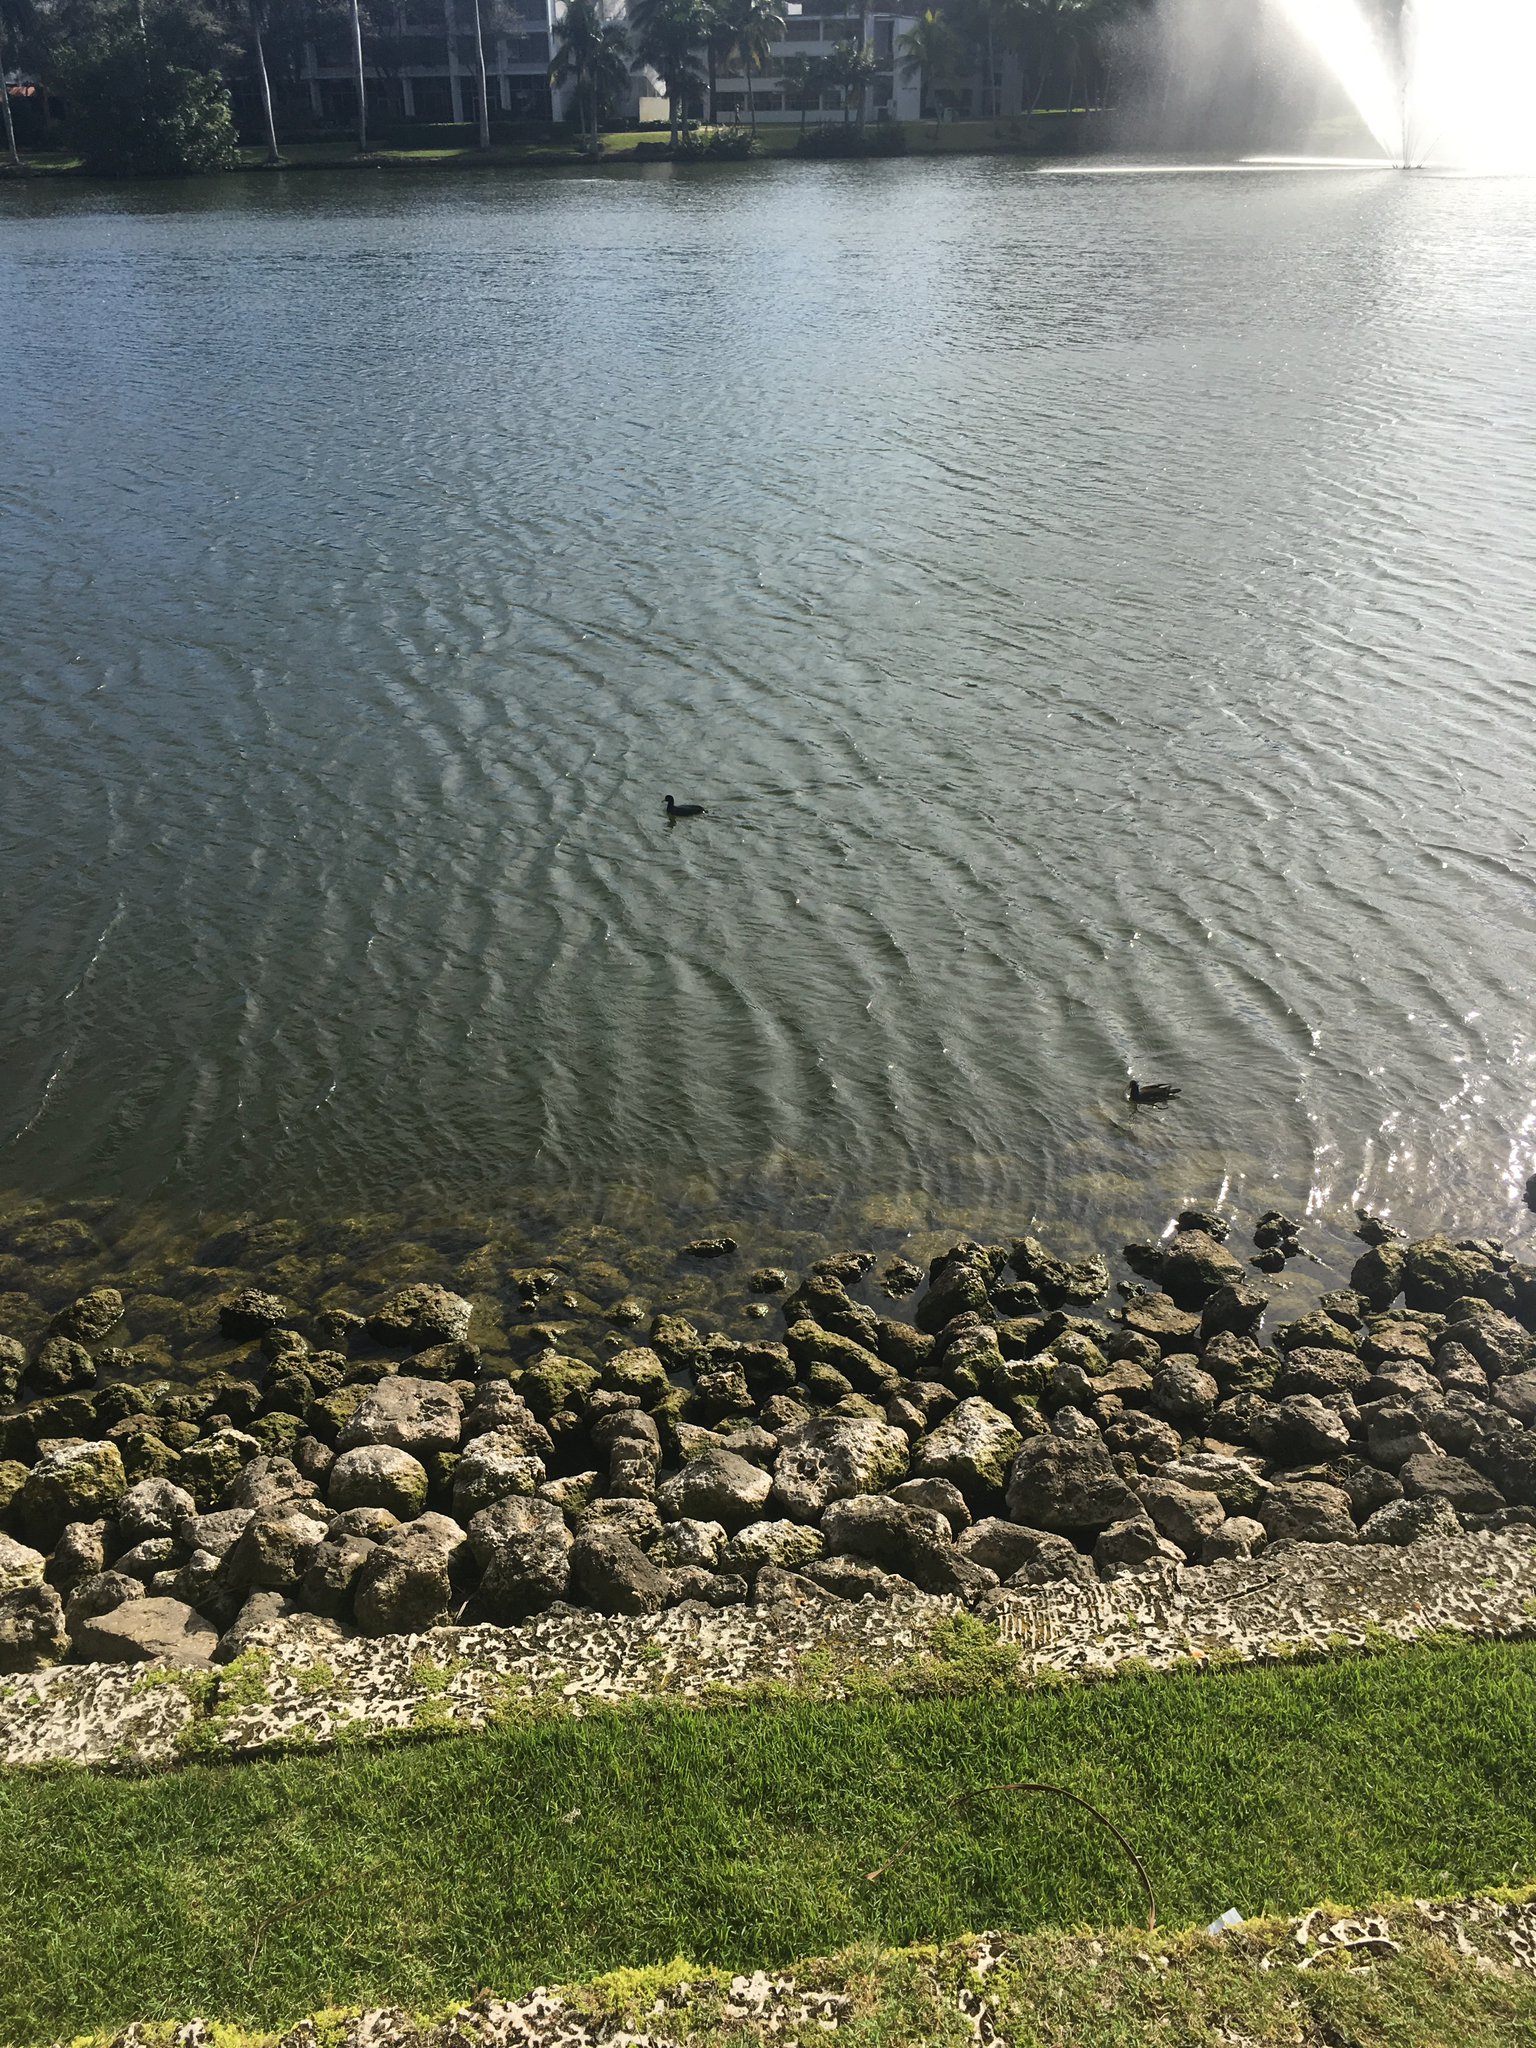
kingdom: Animalia
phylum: Chordata
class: Aves
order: Gruiformes
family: Rallidae
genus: Fulica
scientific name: Fulica americana
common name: American coot
